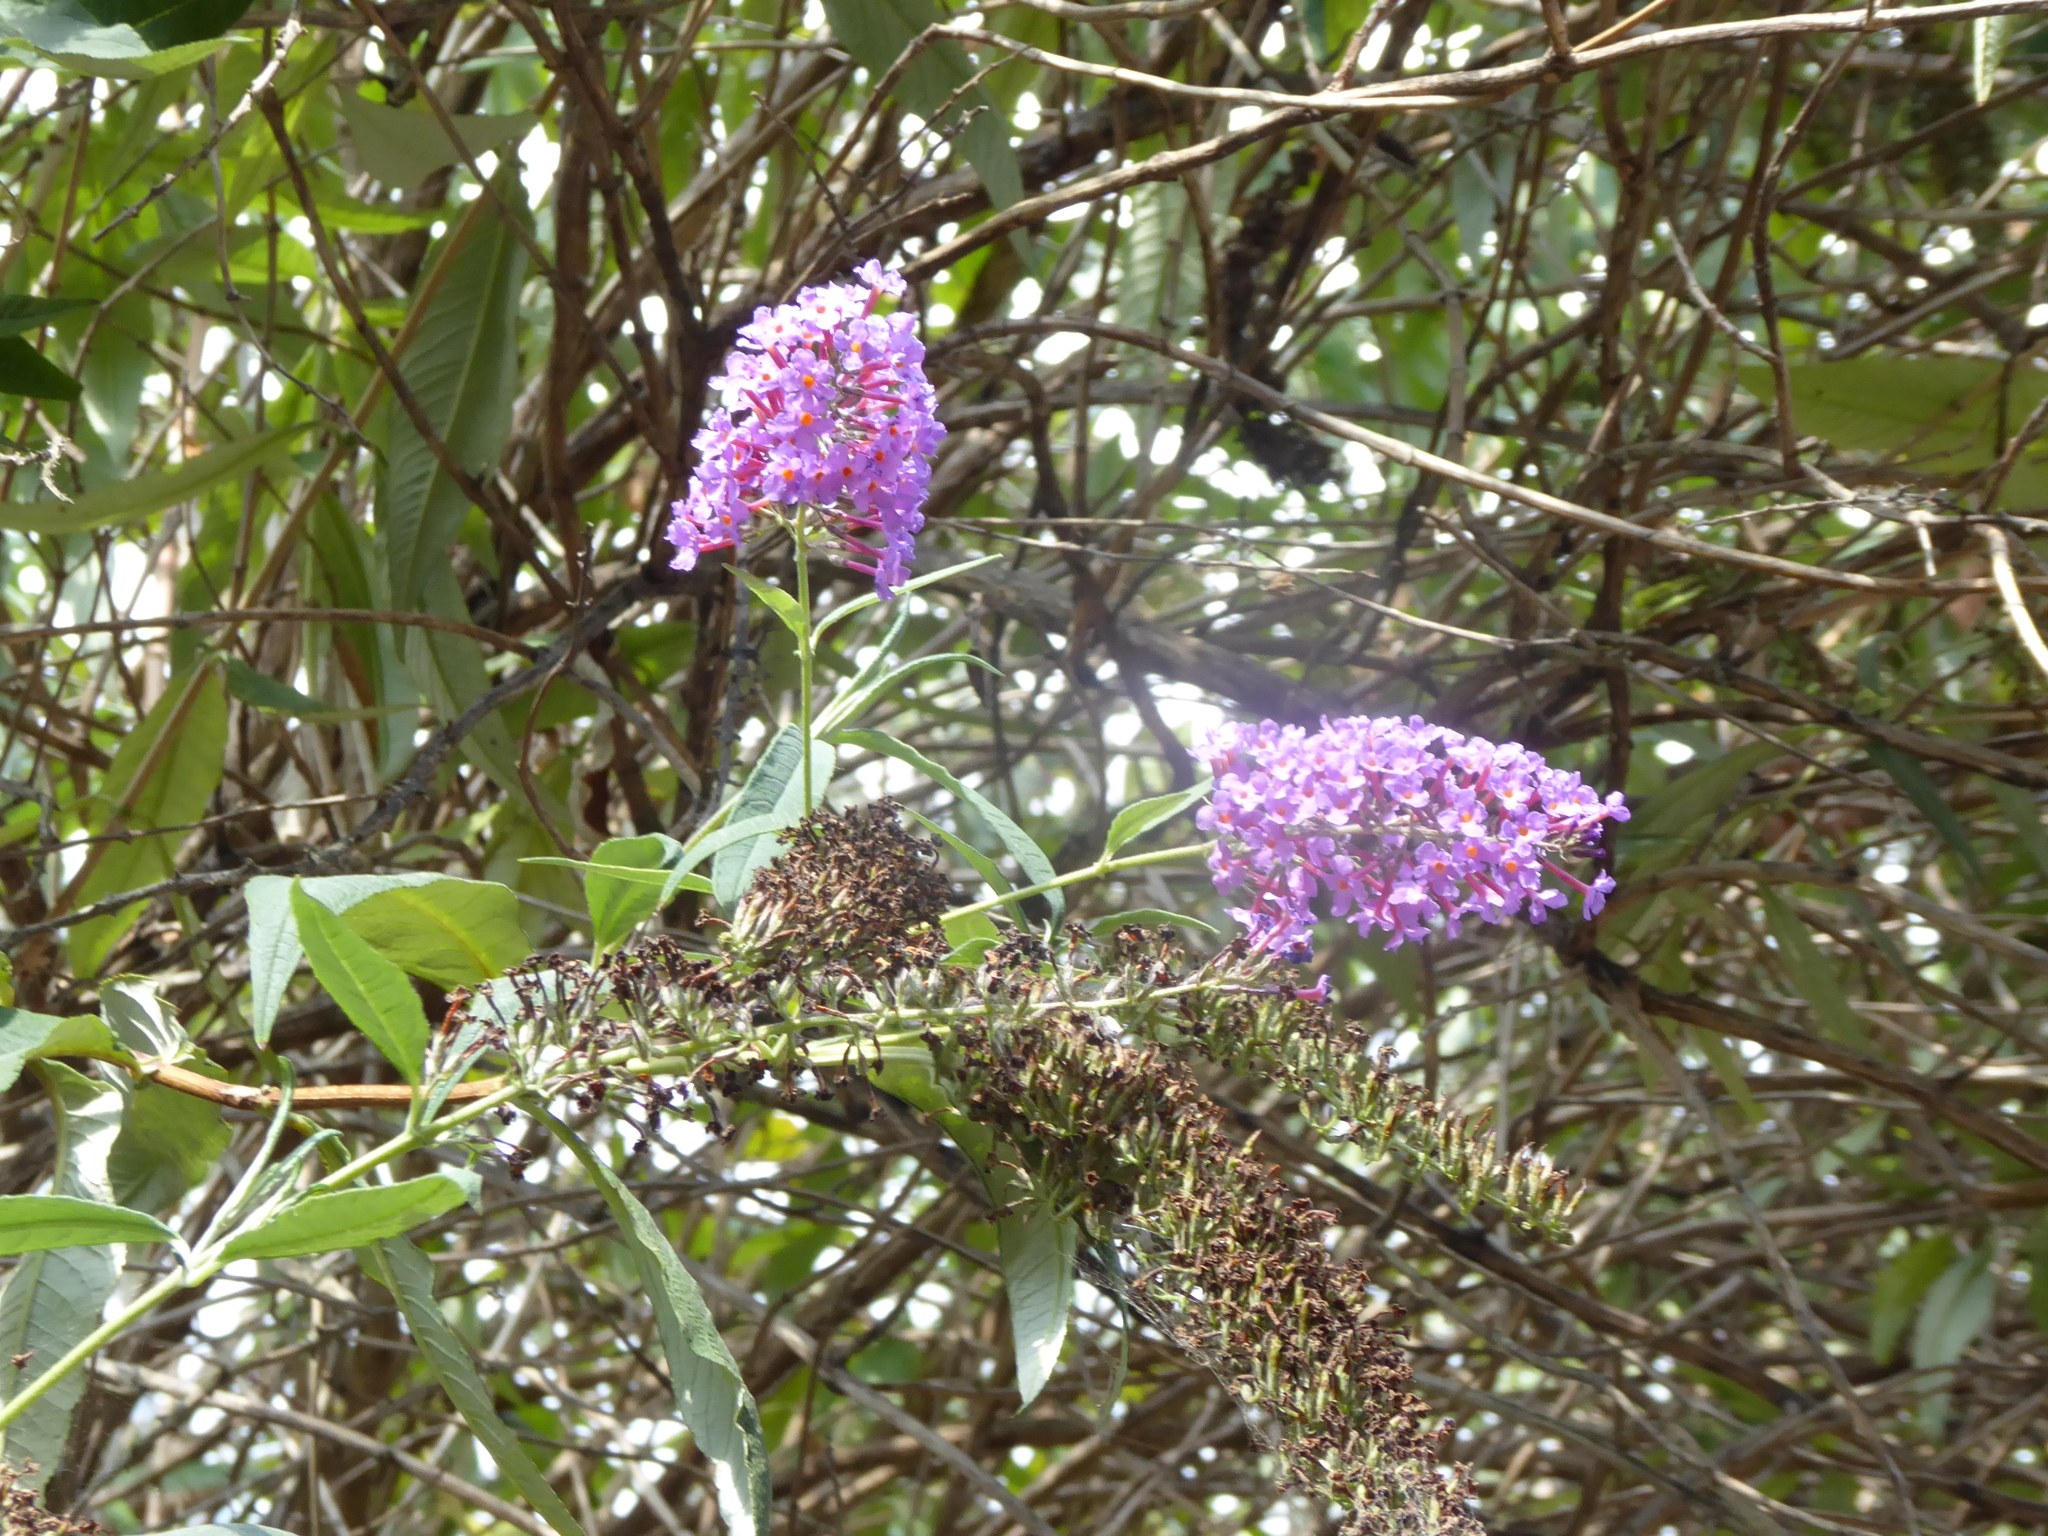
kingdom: Plantae
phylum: Tracheophyta
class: Magnoliopsida
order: Lamiales
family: Scrophulariaceae
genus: Buddleja
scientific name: Buddleja davidii
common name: Butterfly-bush
